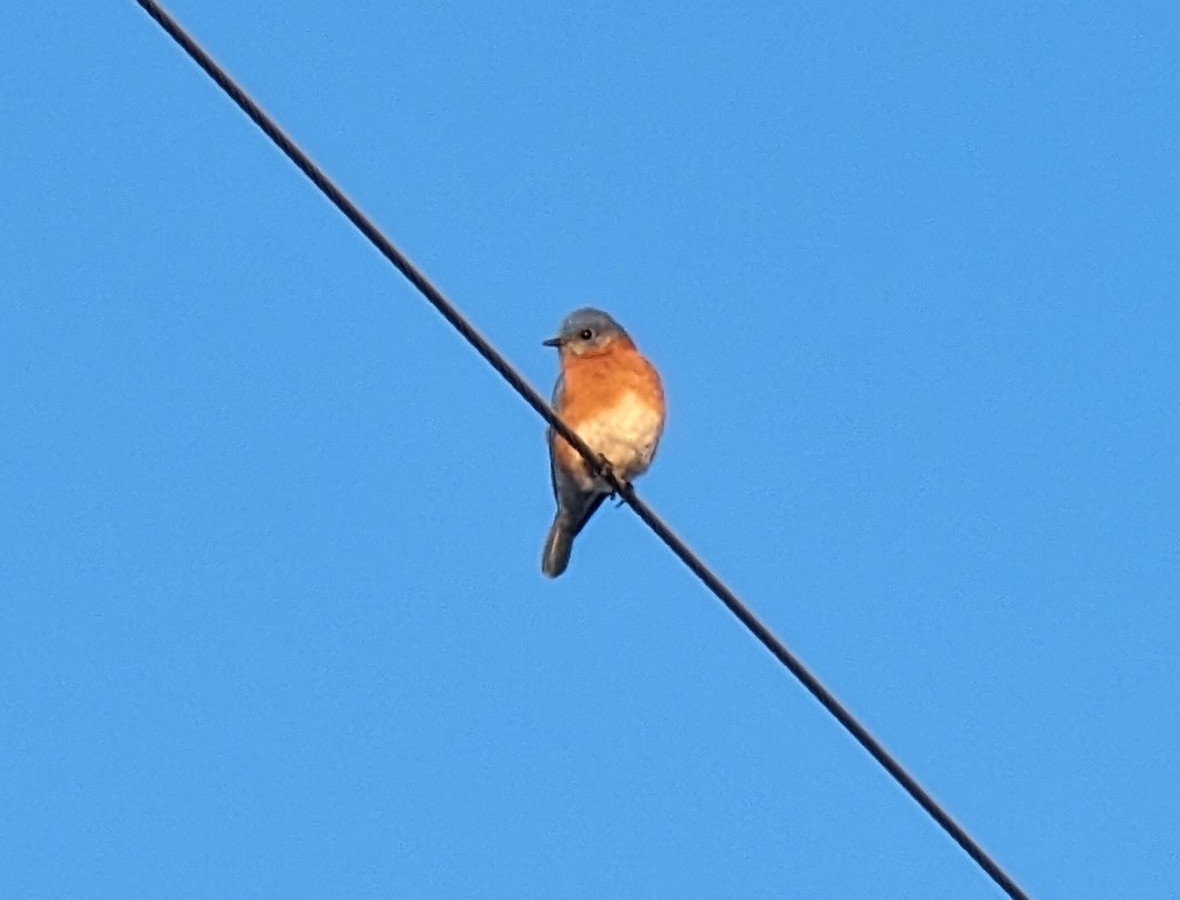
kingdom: Animalia
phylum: Chordata
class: Aves
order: Passeriformes
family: Turdidae
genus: Sialia
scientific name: Sialia sialis
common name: Eastern bluebird
